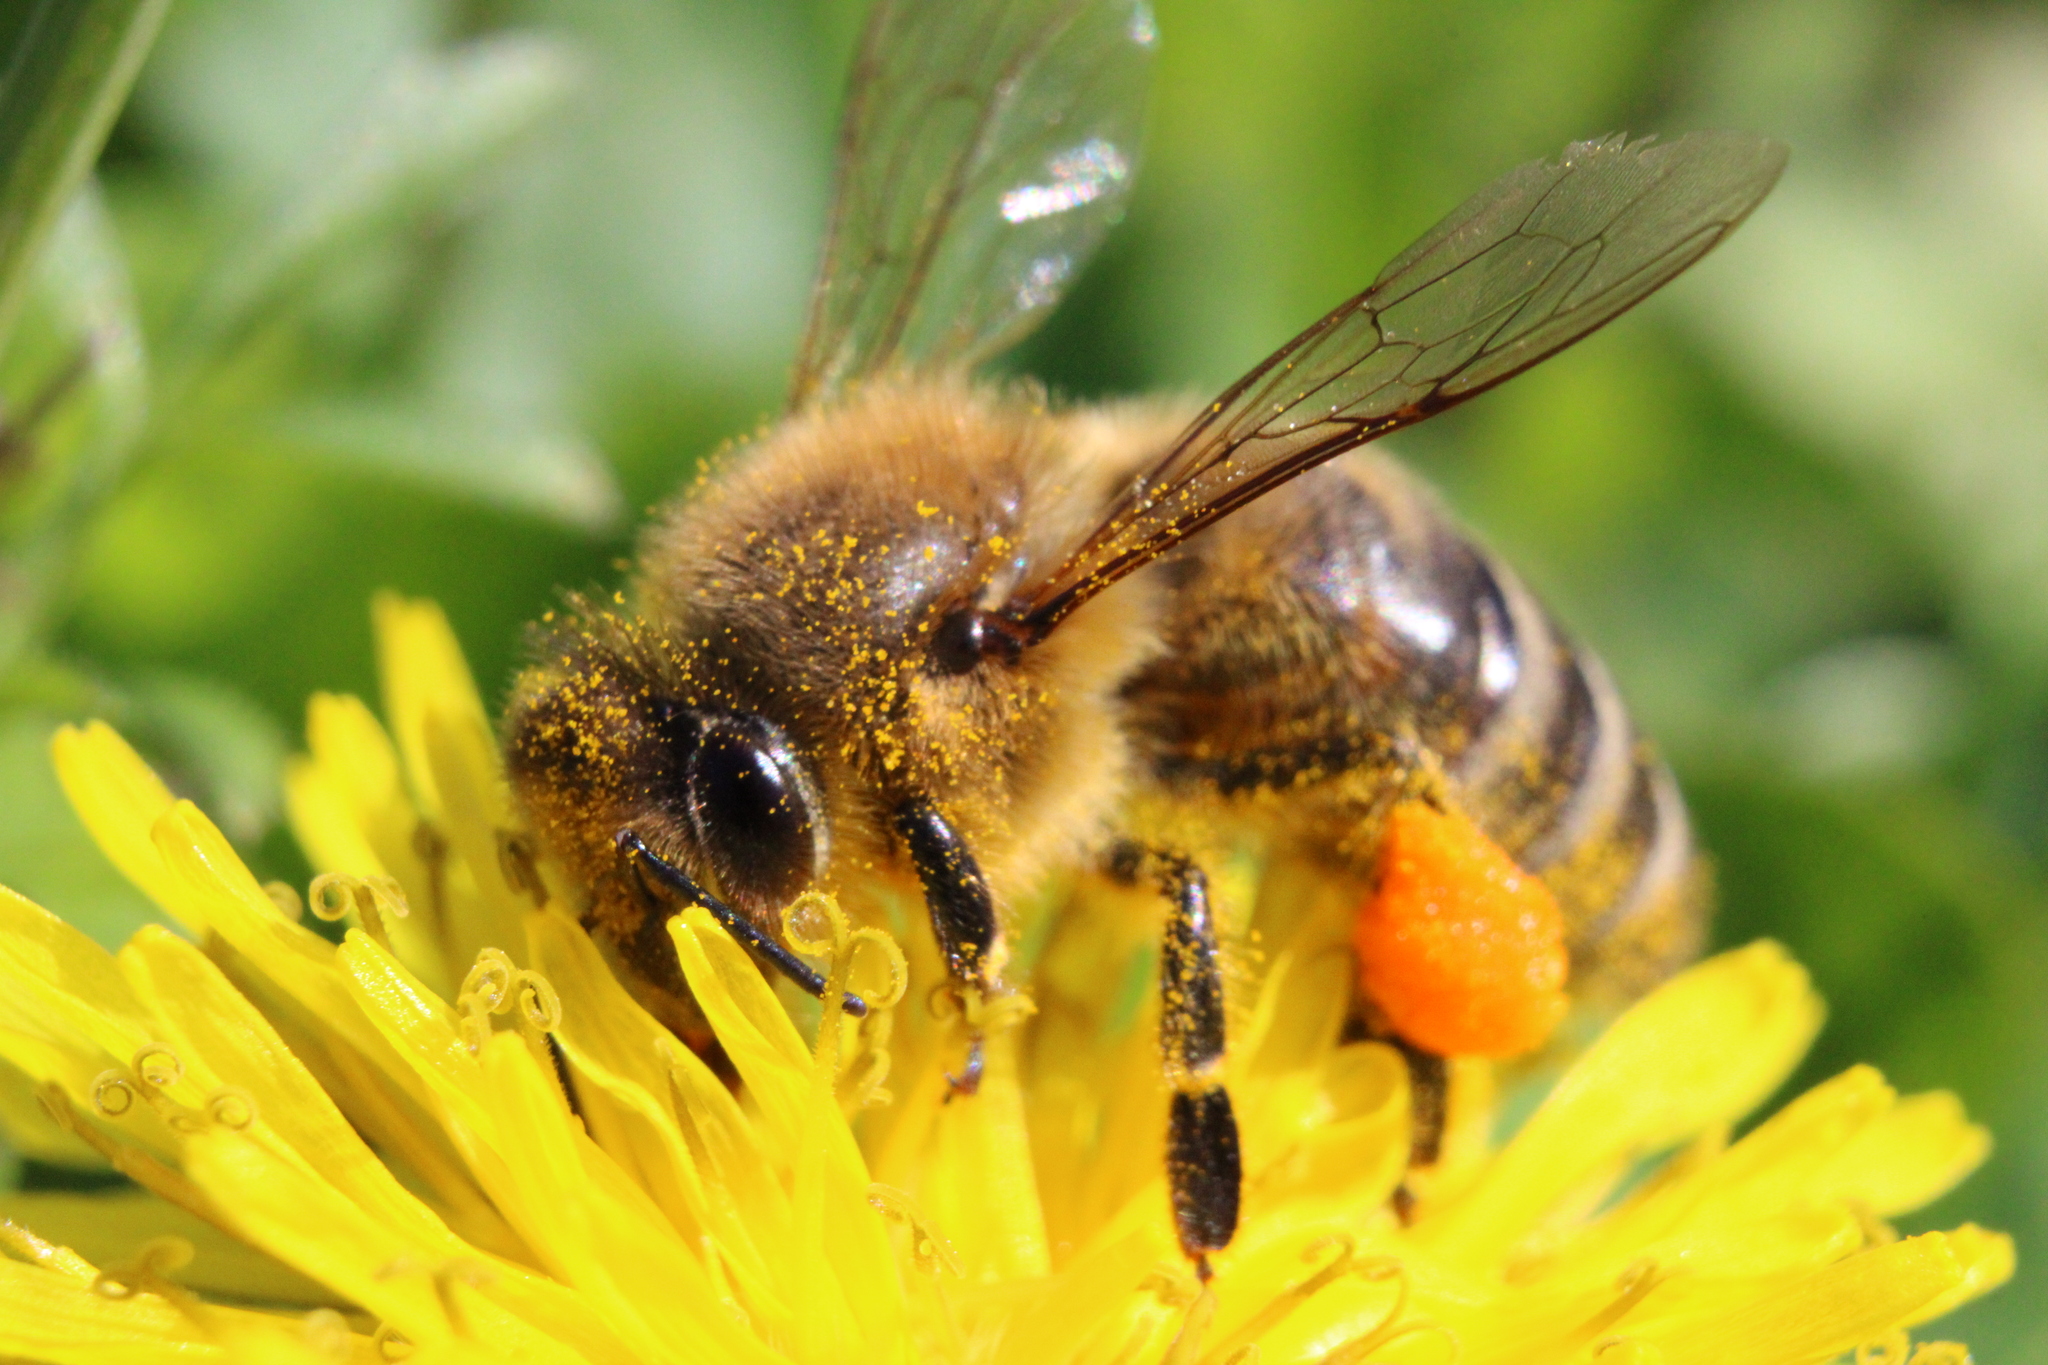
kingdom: Animalia
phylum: Arthropoda
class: Insecta
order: Hymenoptera
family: Apidae
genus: Apis
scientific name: Apis mellifera
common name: Honey bee
